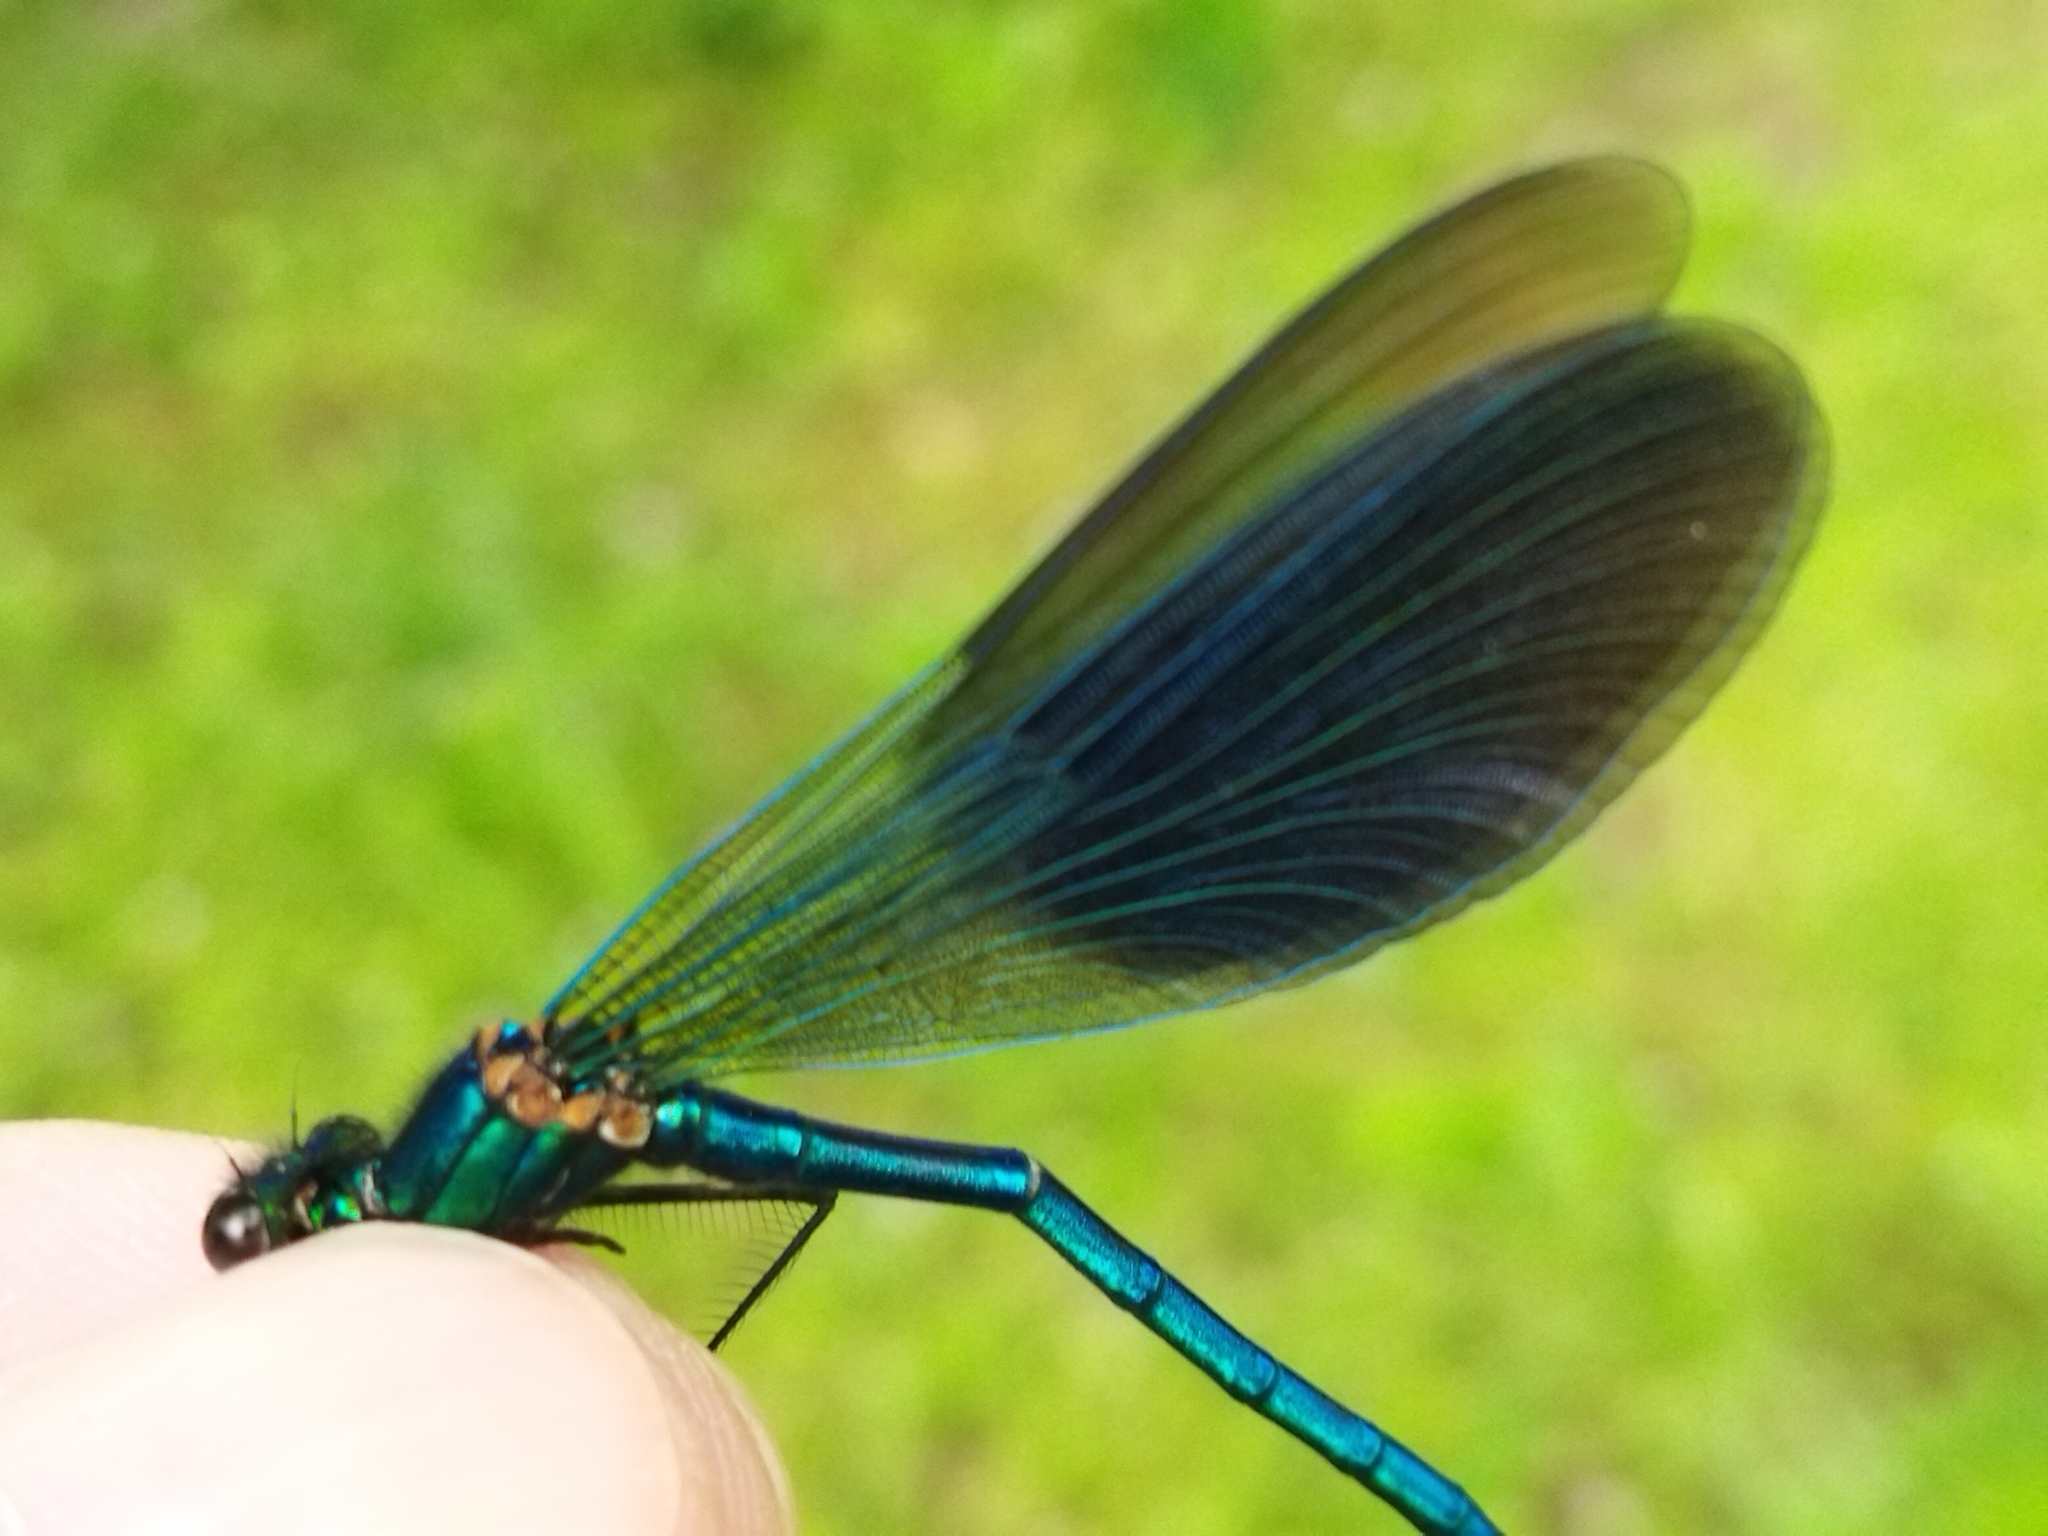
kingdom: Animalia
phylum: Arthropoda
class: Insecta
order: Odonata
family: Calopterygidae
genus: Calopteryx
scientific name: Calopteryx splendens
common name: Banded demoiselle
